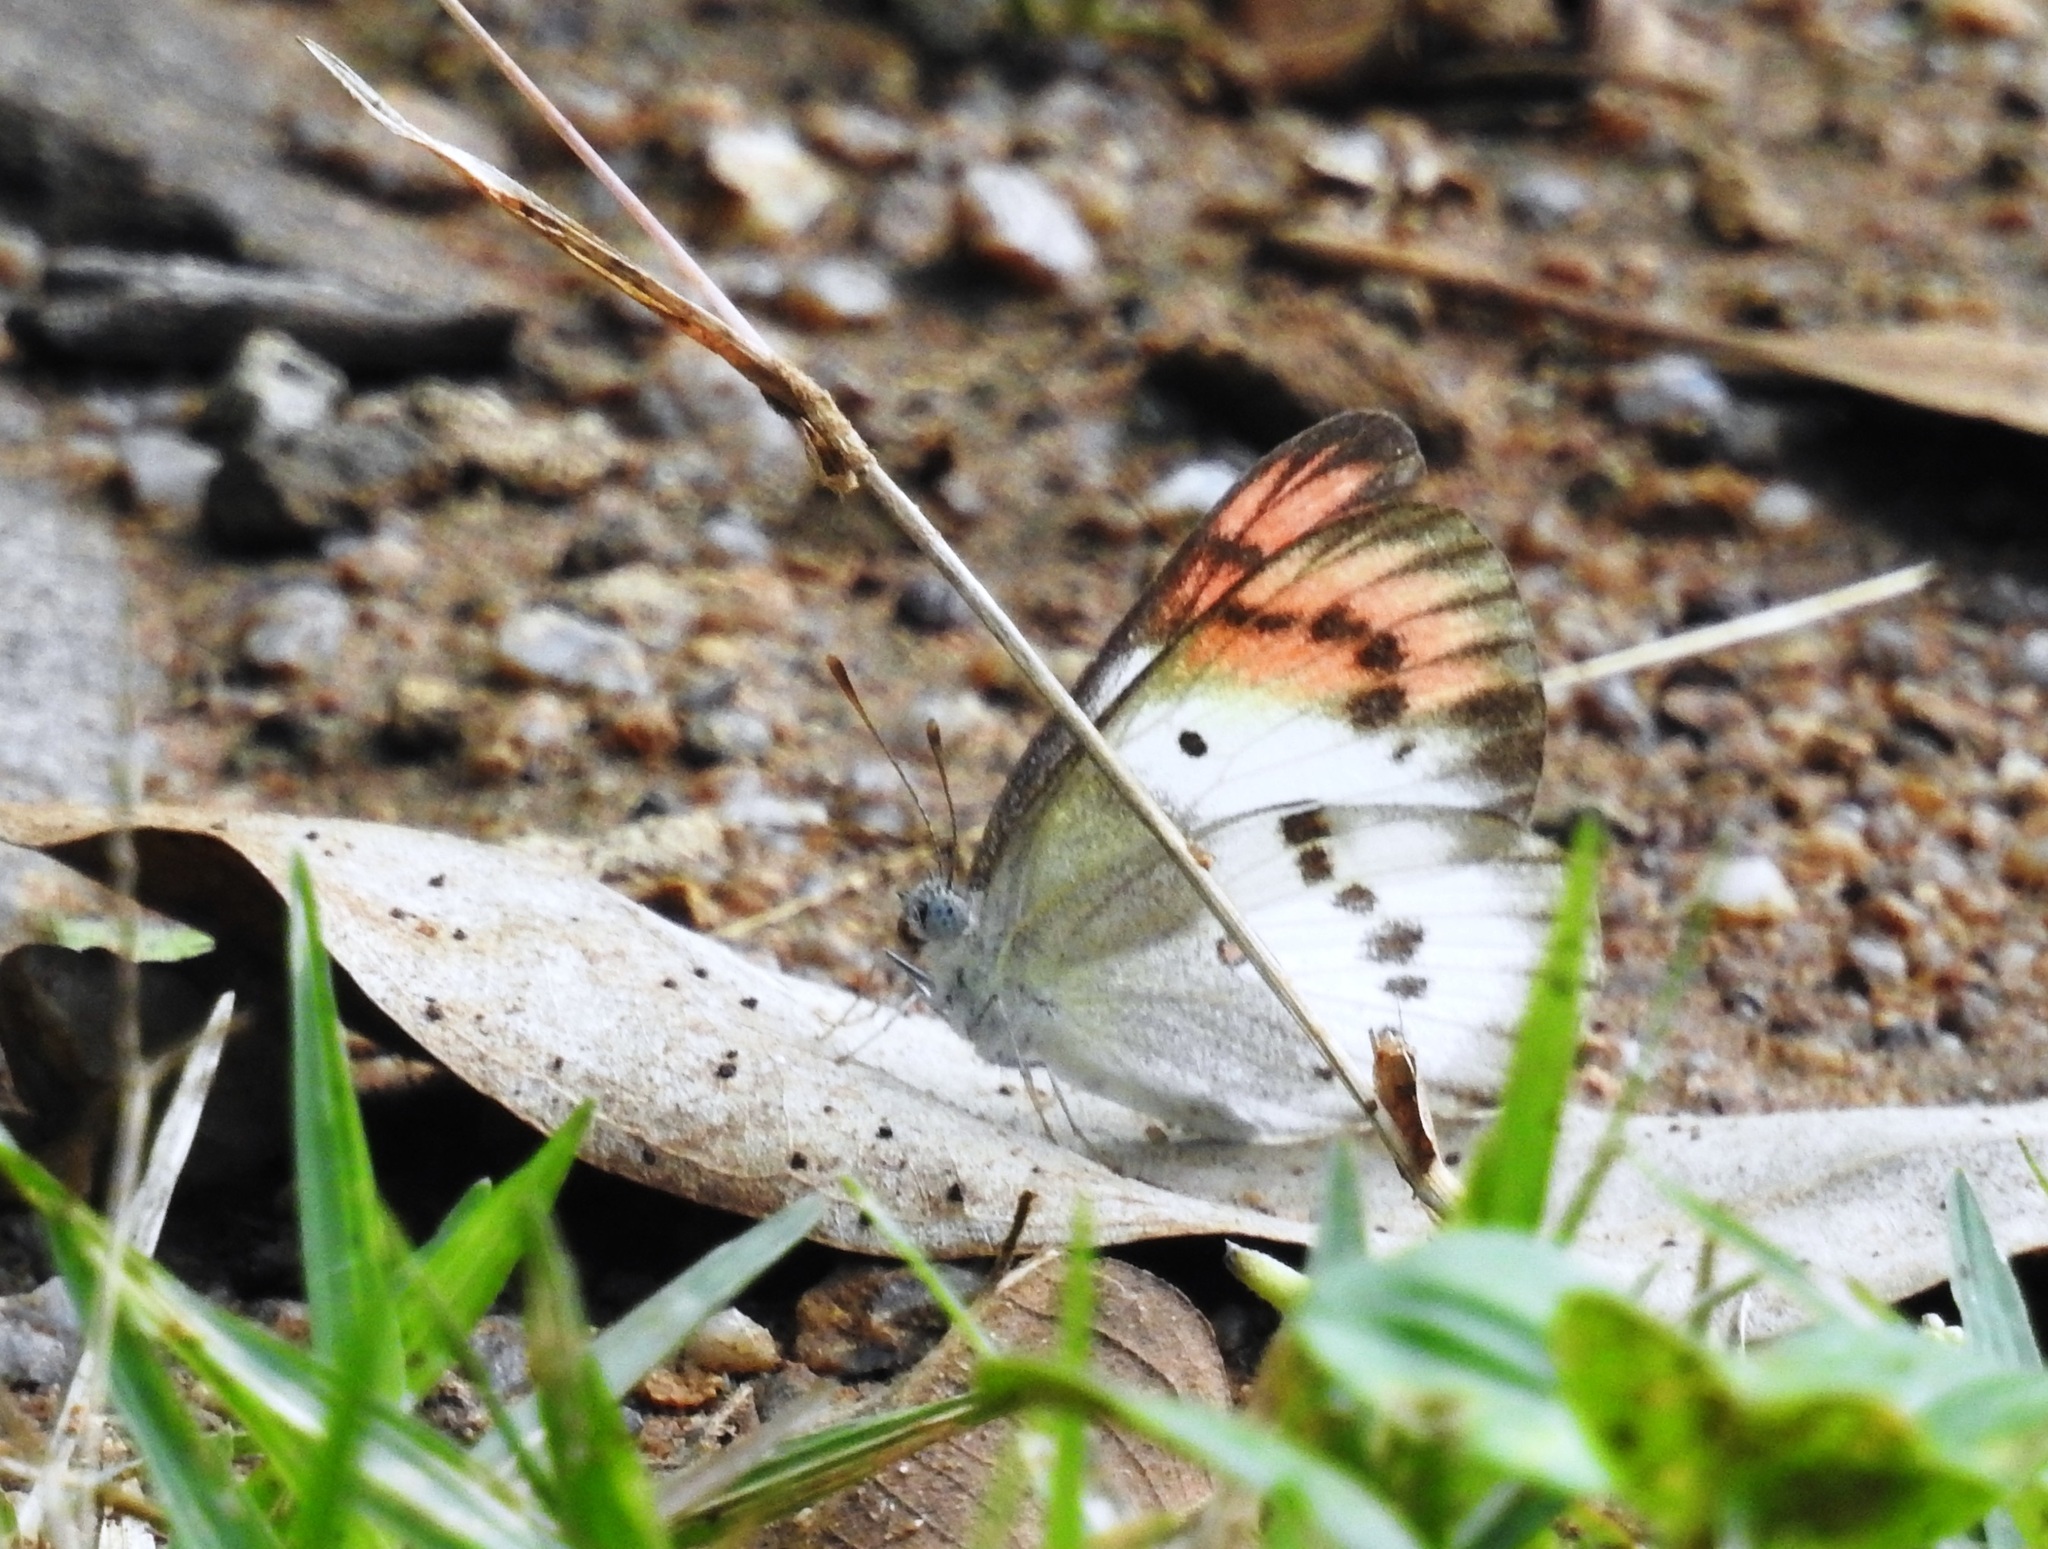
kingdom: Animalia
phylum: Arthropoda
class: Insecta
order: Lepidoptera
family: Pieridae
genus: Colotis
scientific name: Colotis danae
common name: Crimson tip
